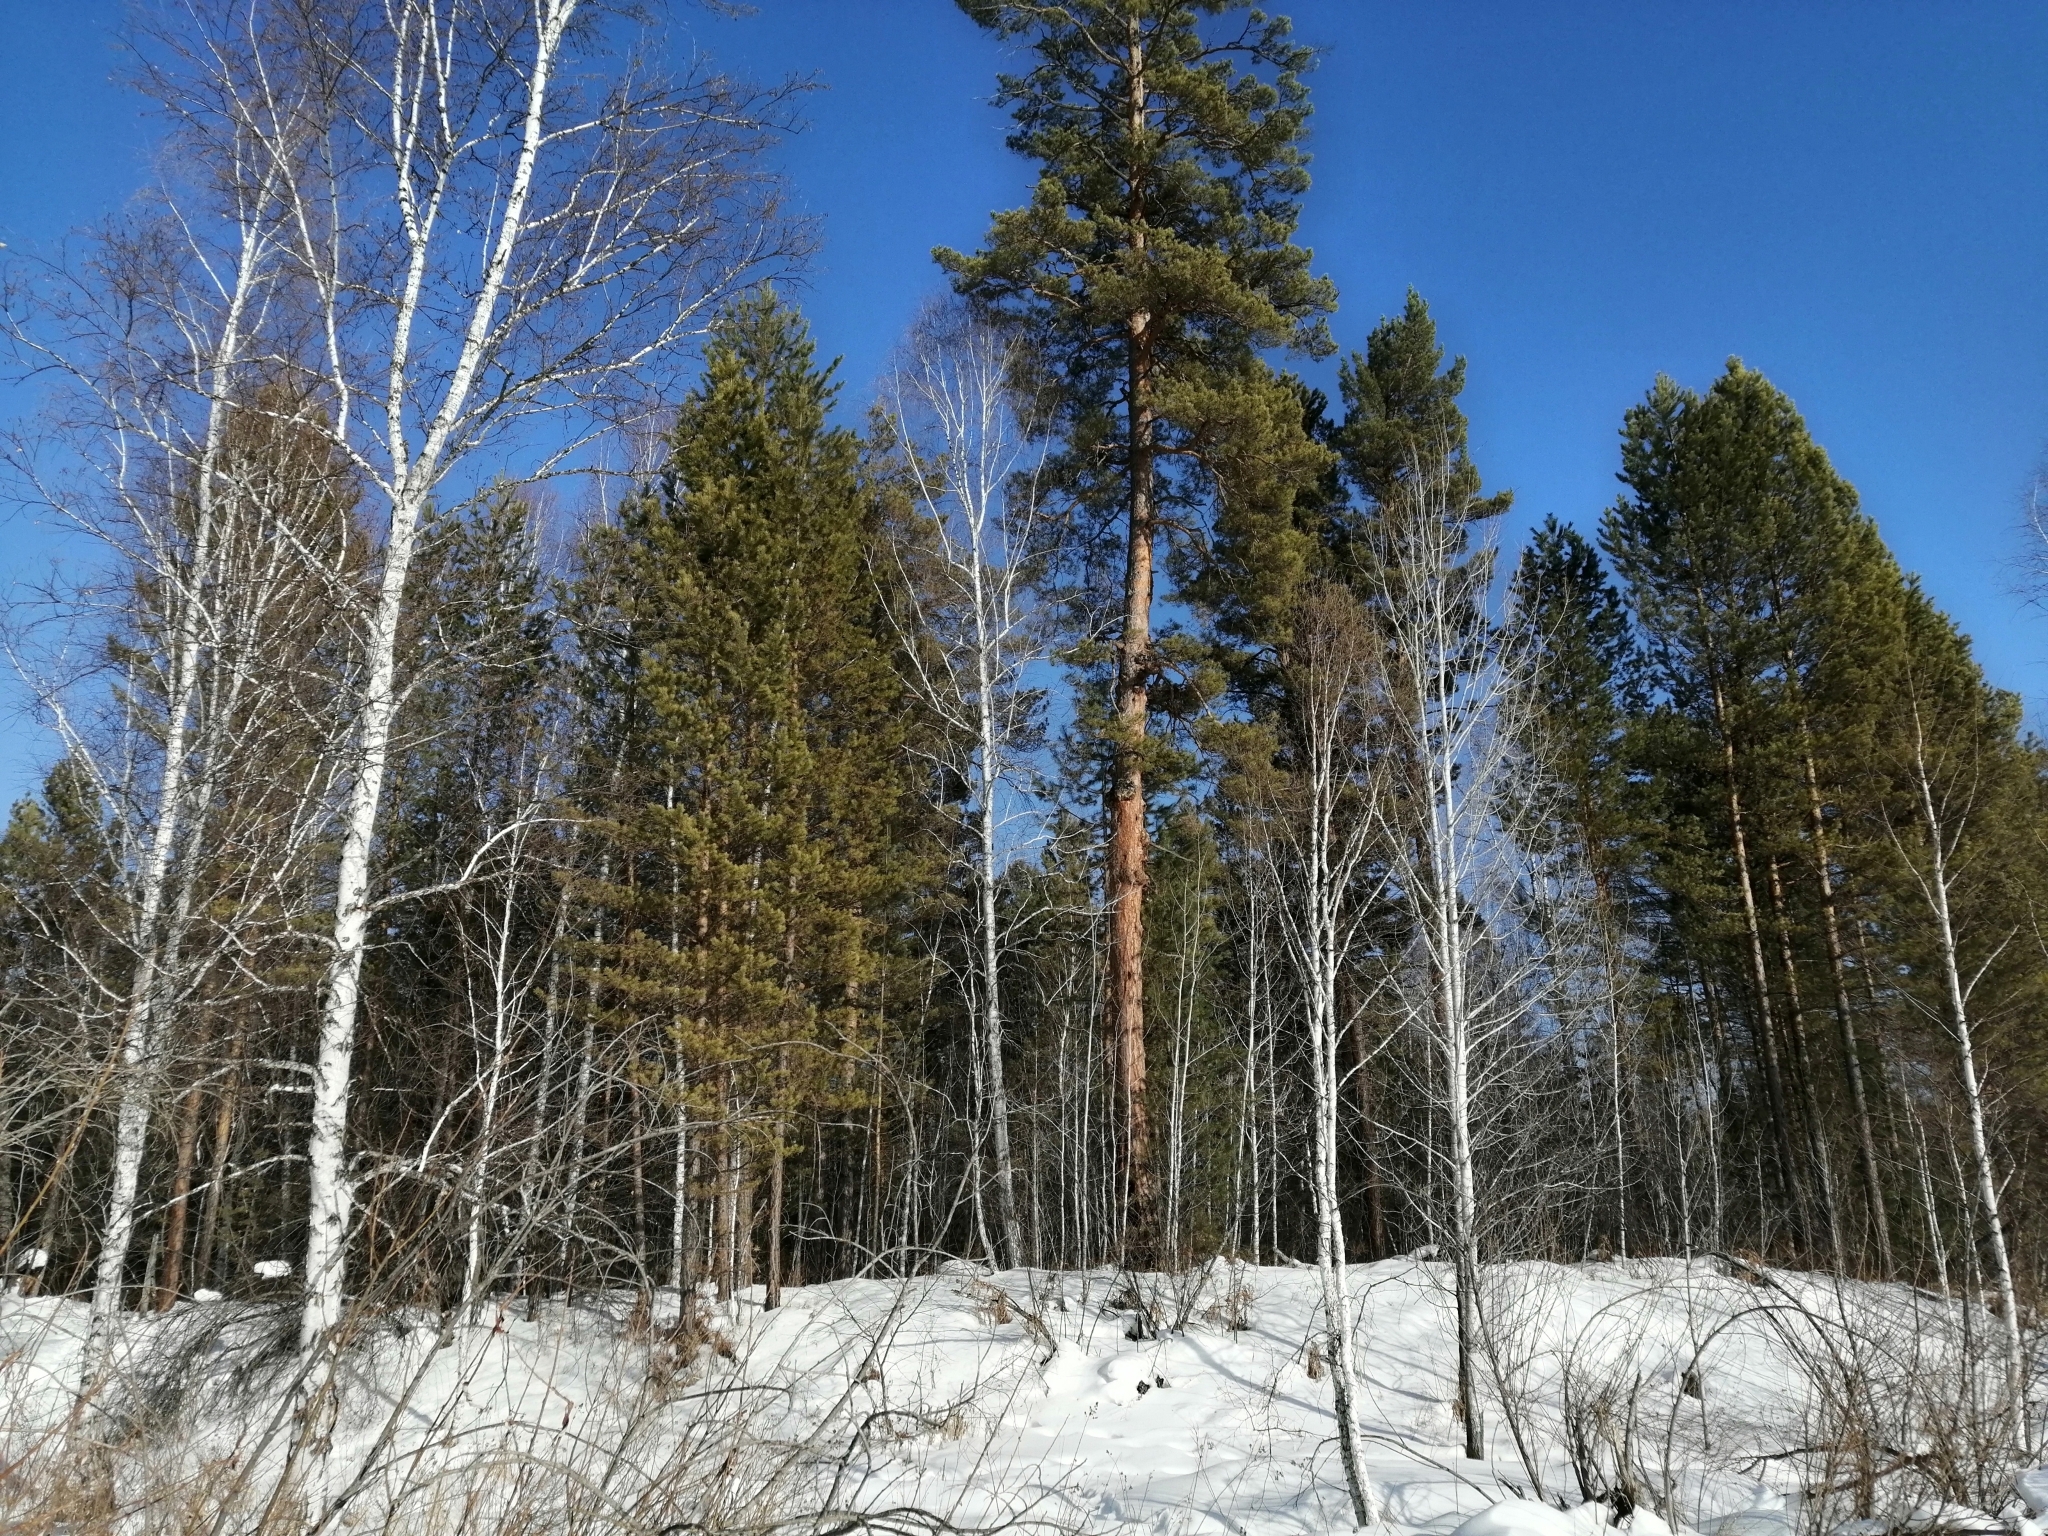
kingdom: Plantae
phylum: Tracheophyta
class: Pinopsida
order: Pinales
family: Pinaceae
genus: Pinus
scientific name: Pinus sylvestris
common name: Scots pine
